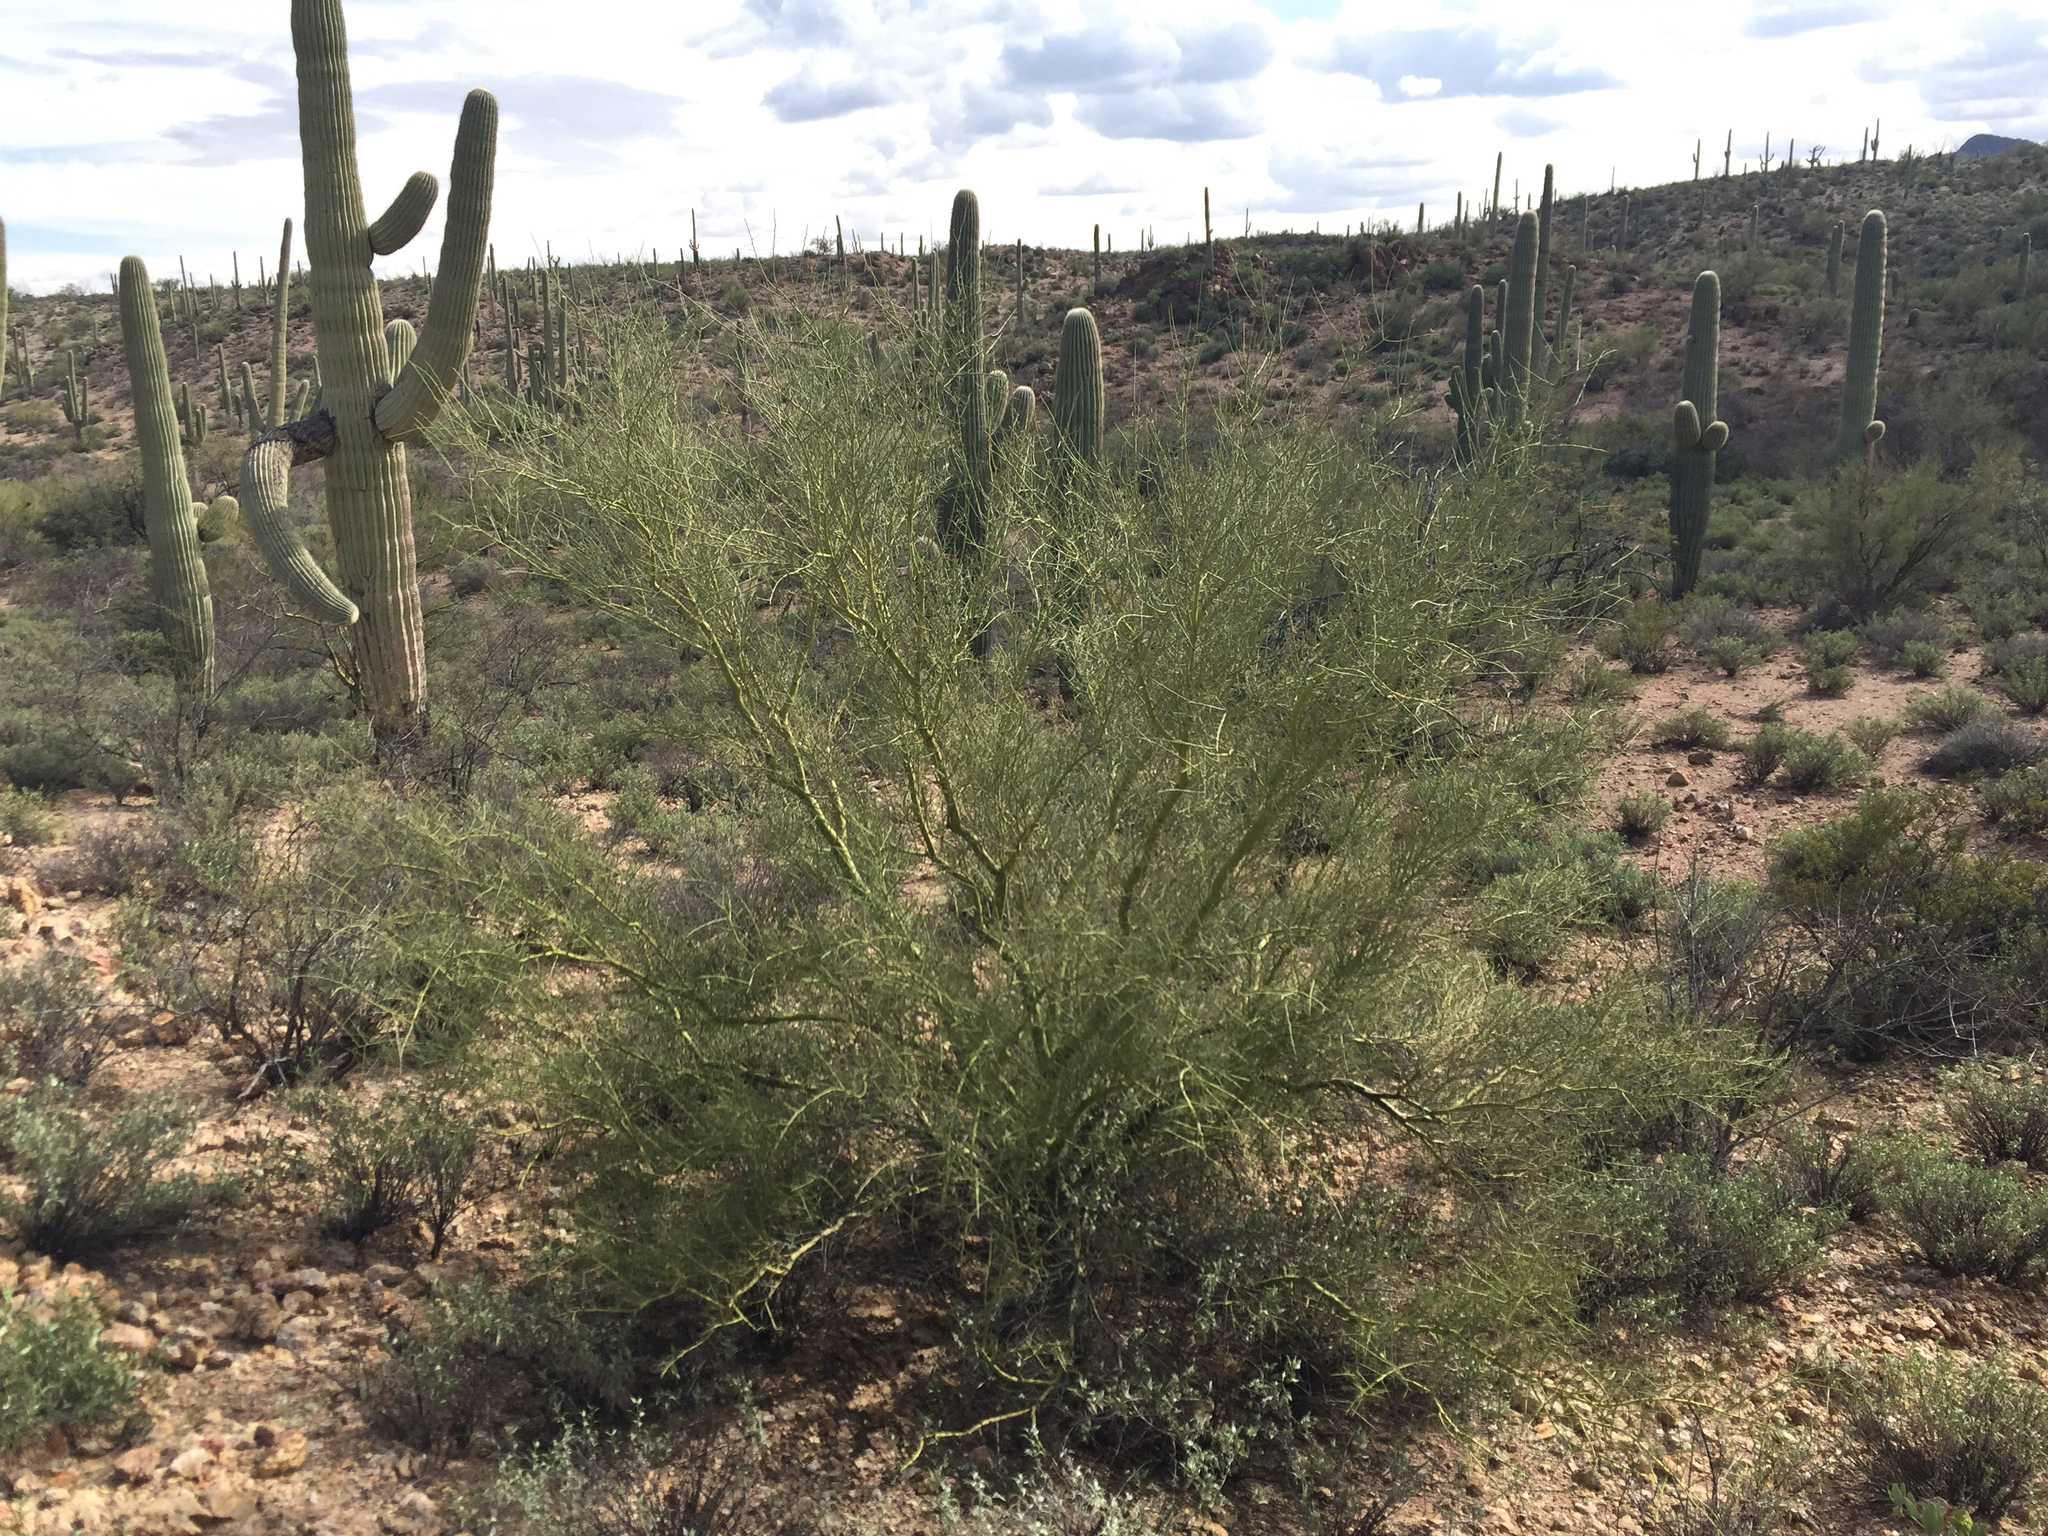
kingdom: Plantae
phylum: Tracheophyta
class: Magnoliopsida
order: Fabales
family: Fabaceae
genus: Parkinsonia
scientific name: Parkinsonia microphylla
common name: Yellow paloverde
